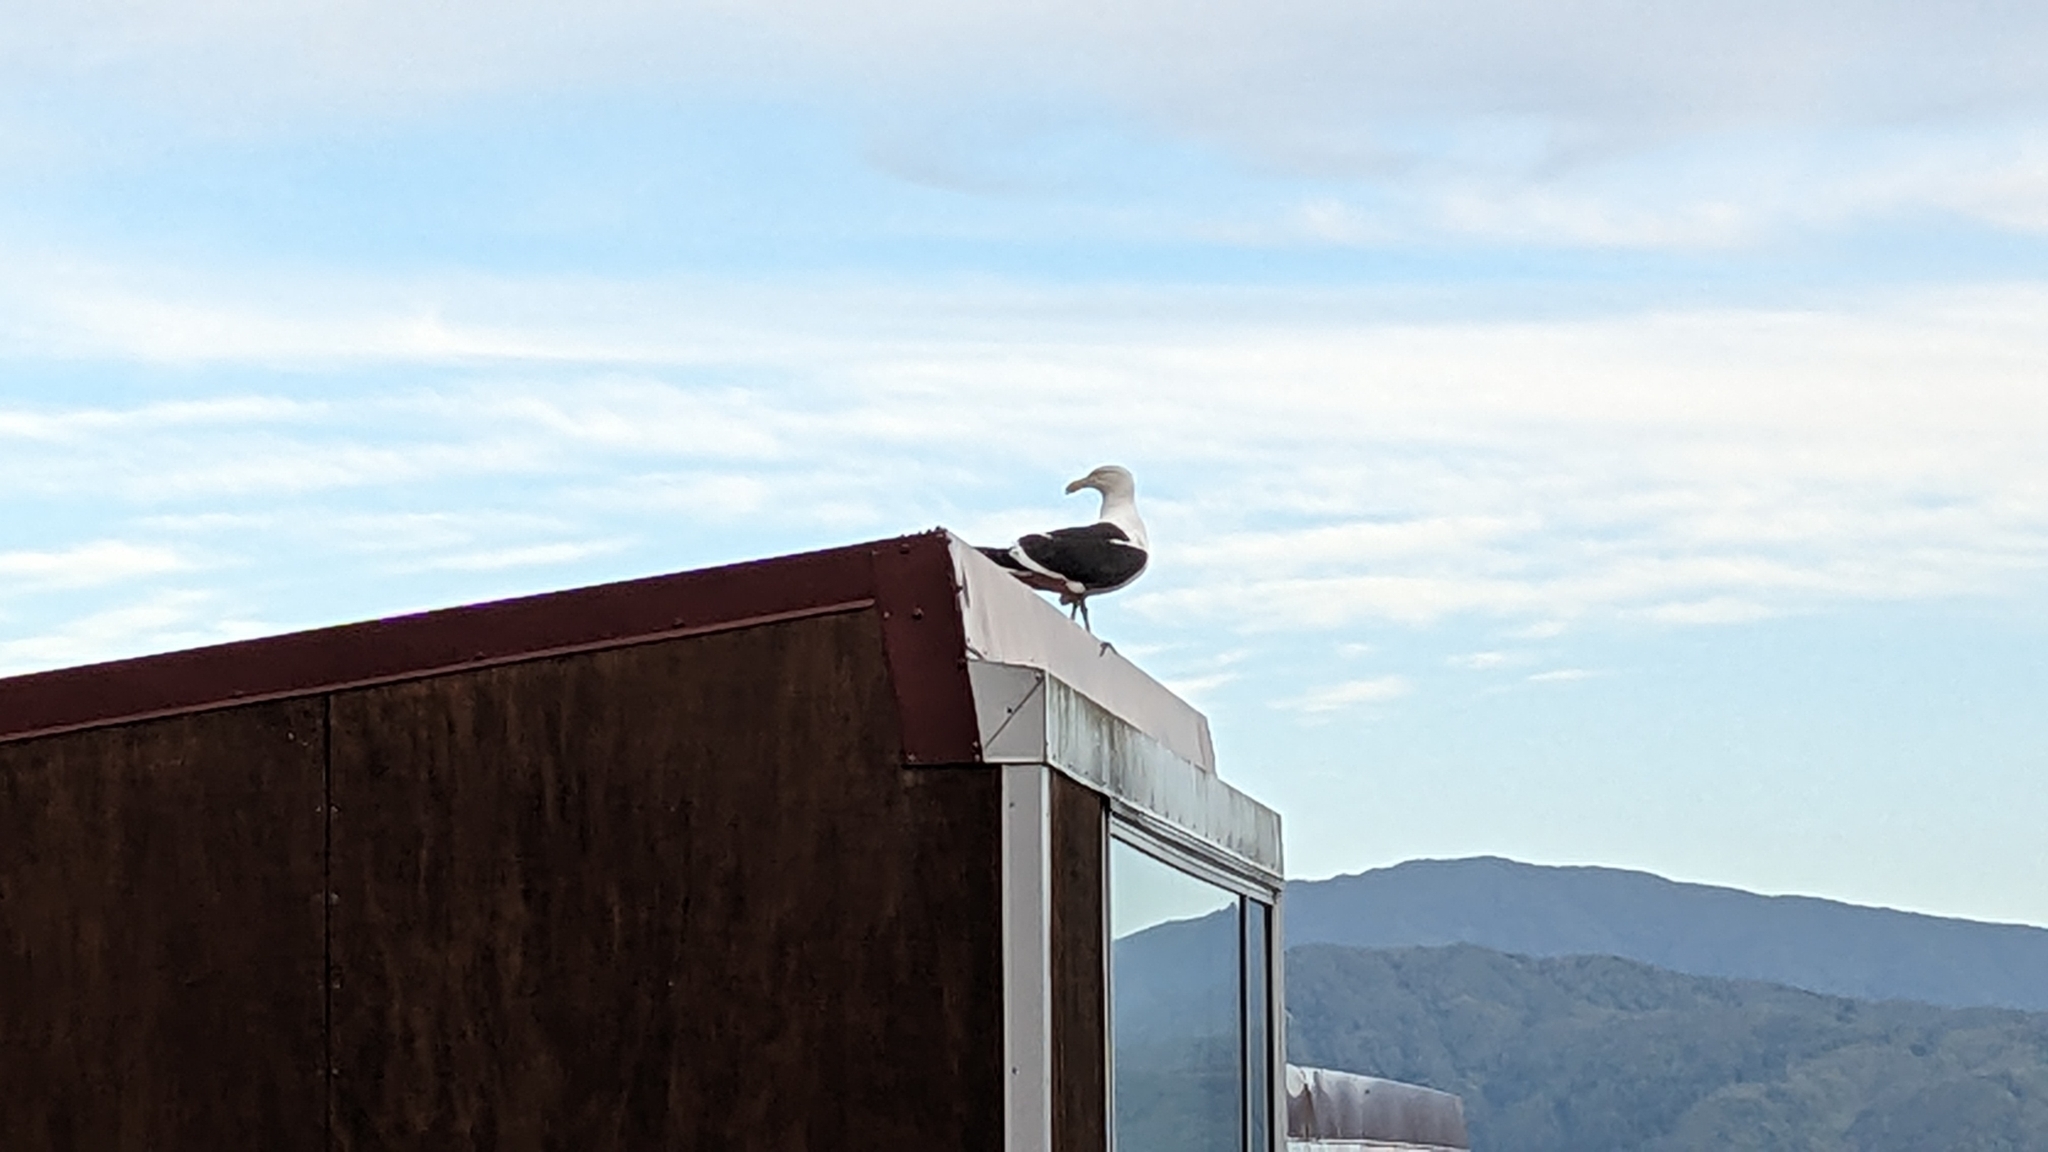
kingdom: Animalia
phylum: Chordata
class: Aves
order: Charadriiformes
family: Laridae
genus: Larus
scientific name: Larus dominicanus
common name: Kelp gull
